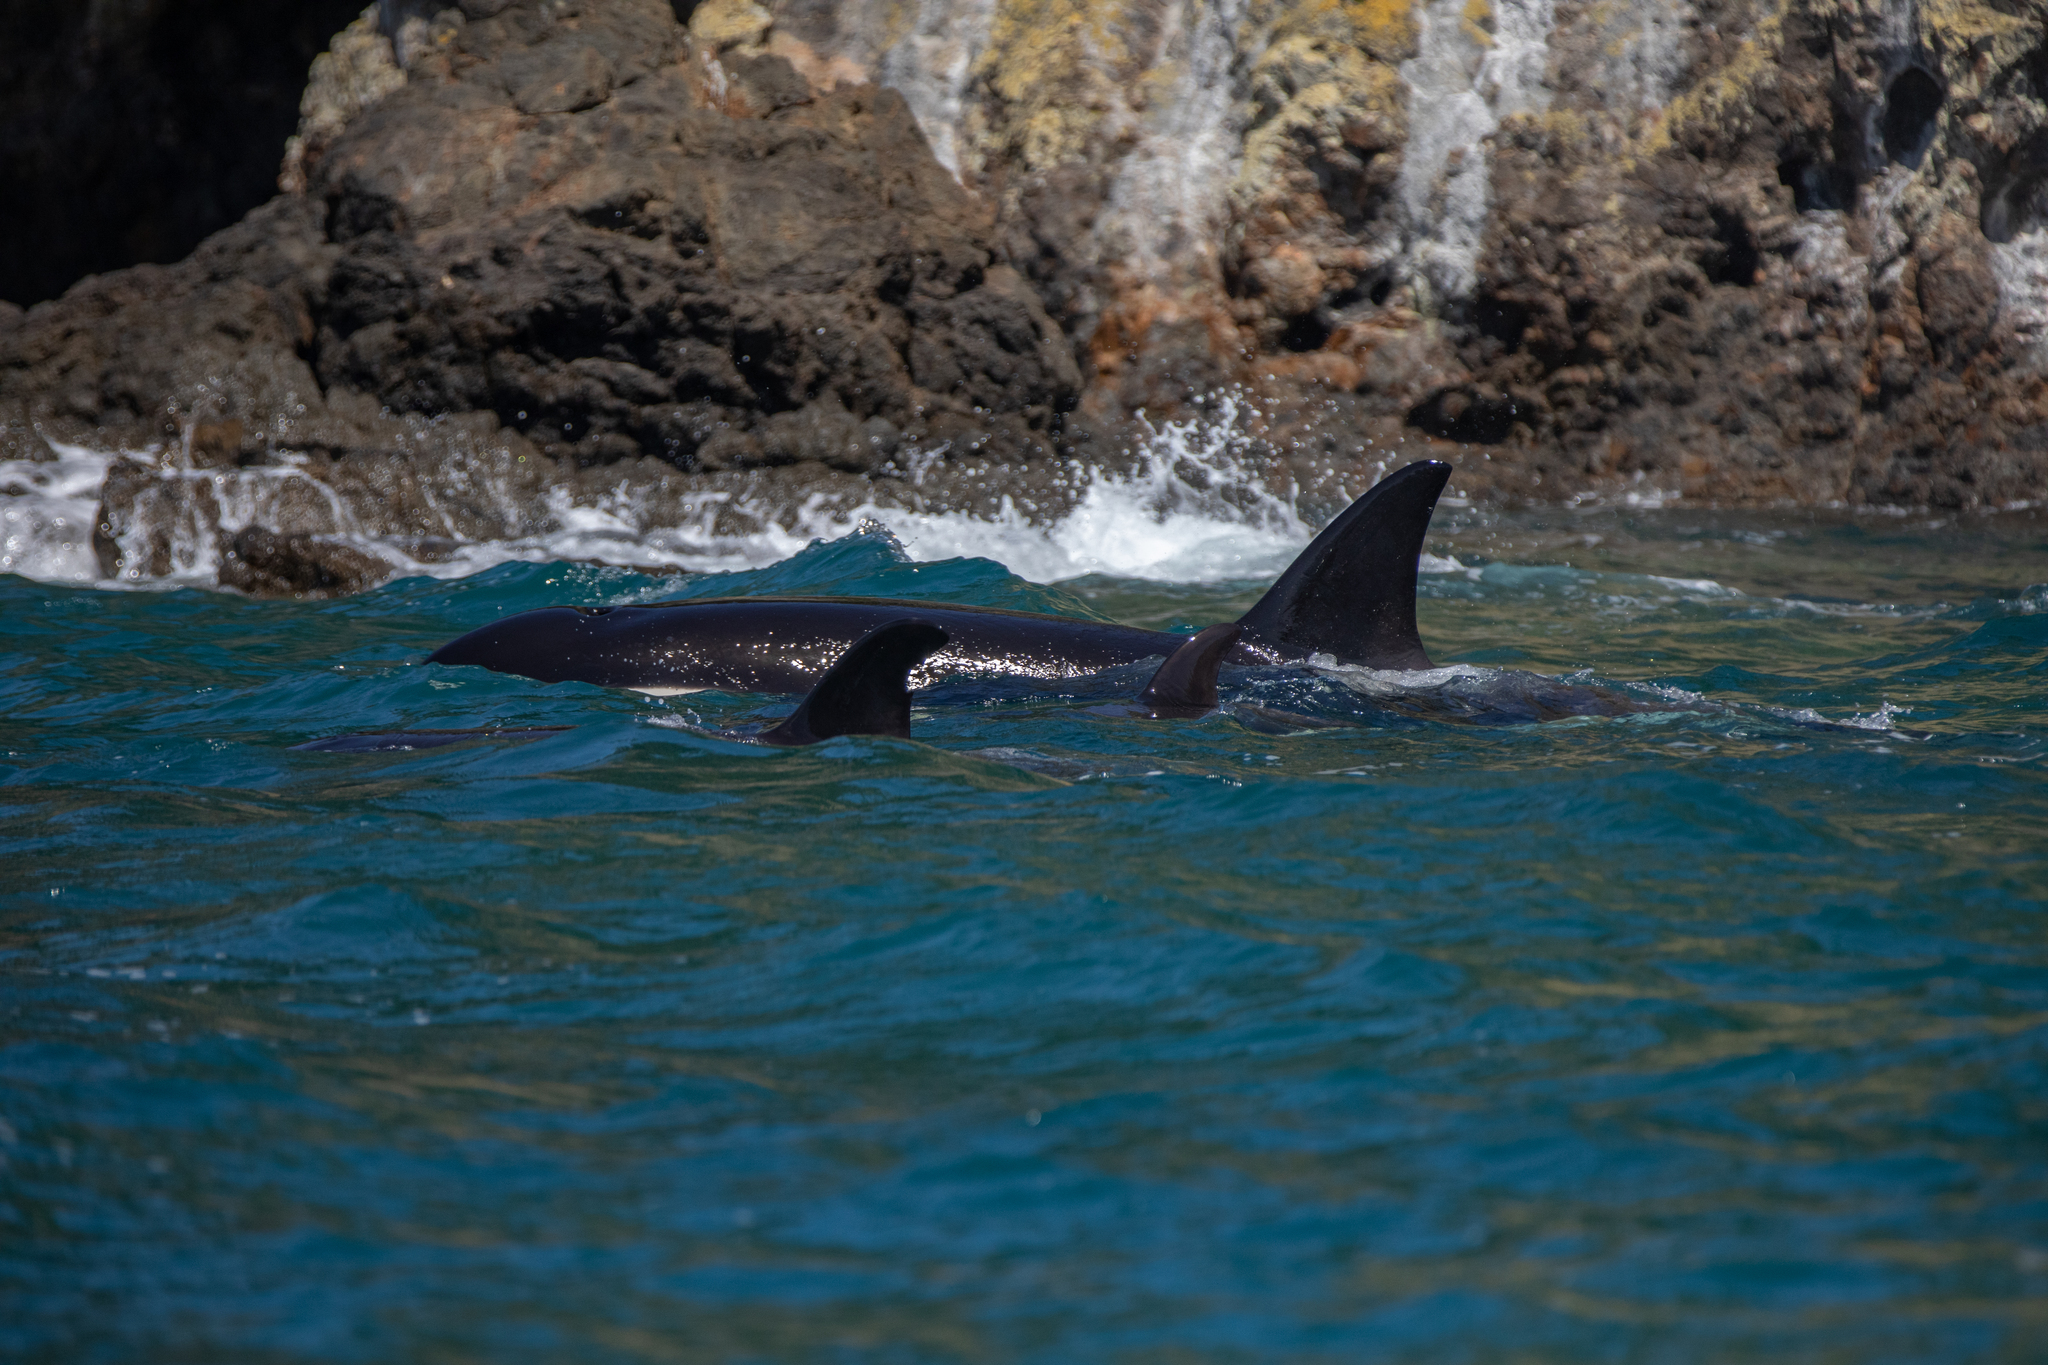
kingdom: Animalia
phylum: Chordata
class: Mammalia
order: Cetacea
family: Delphinidae
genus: Orcinus
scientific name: Orcinus orca
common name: Killer whale
